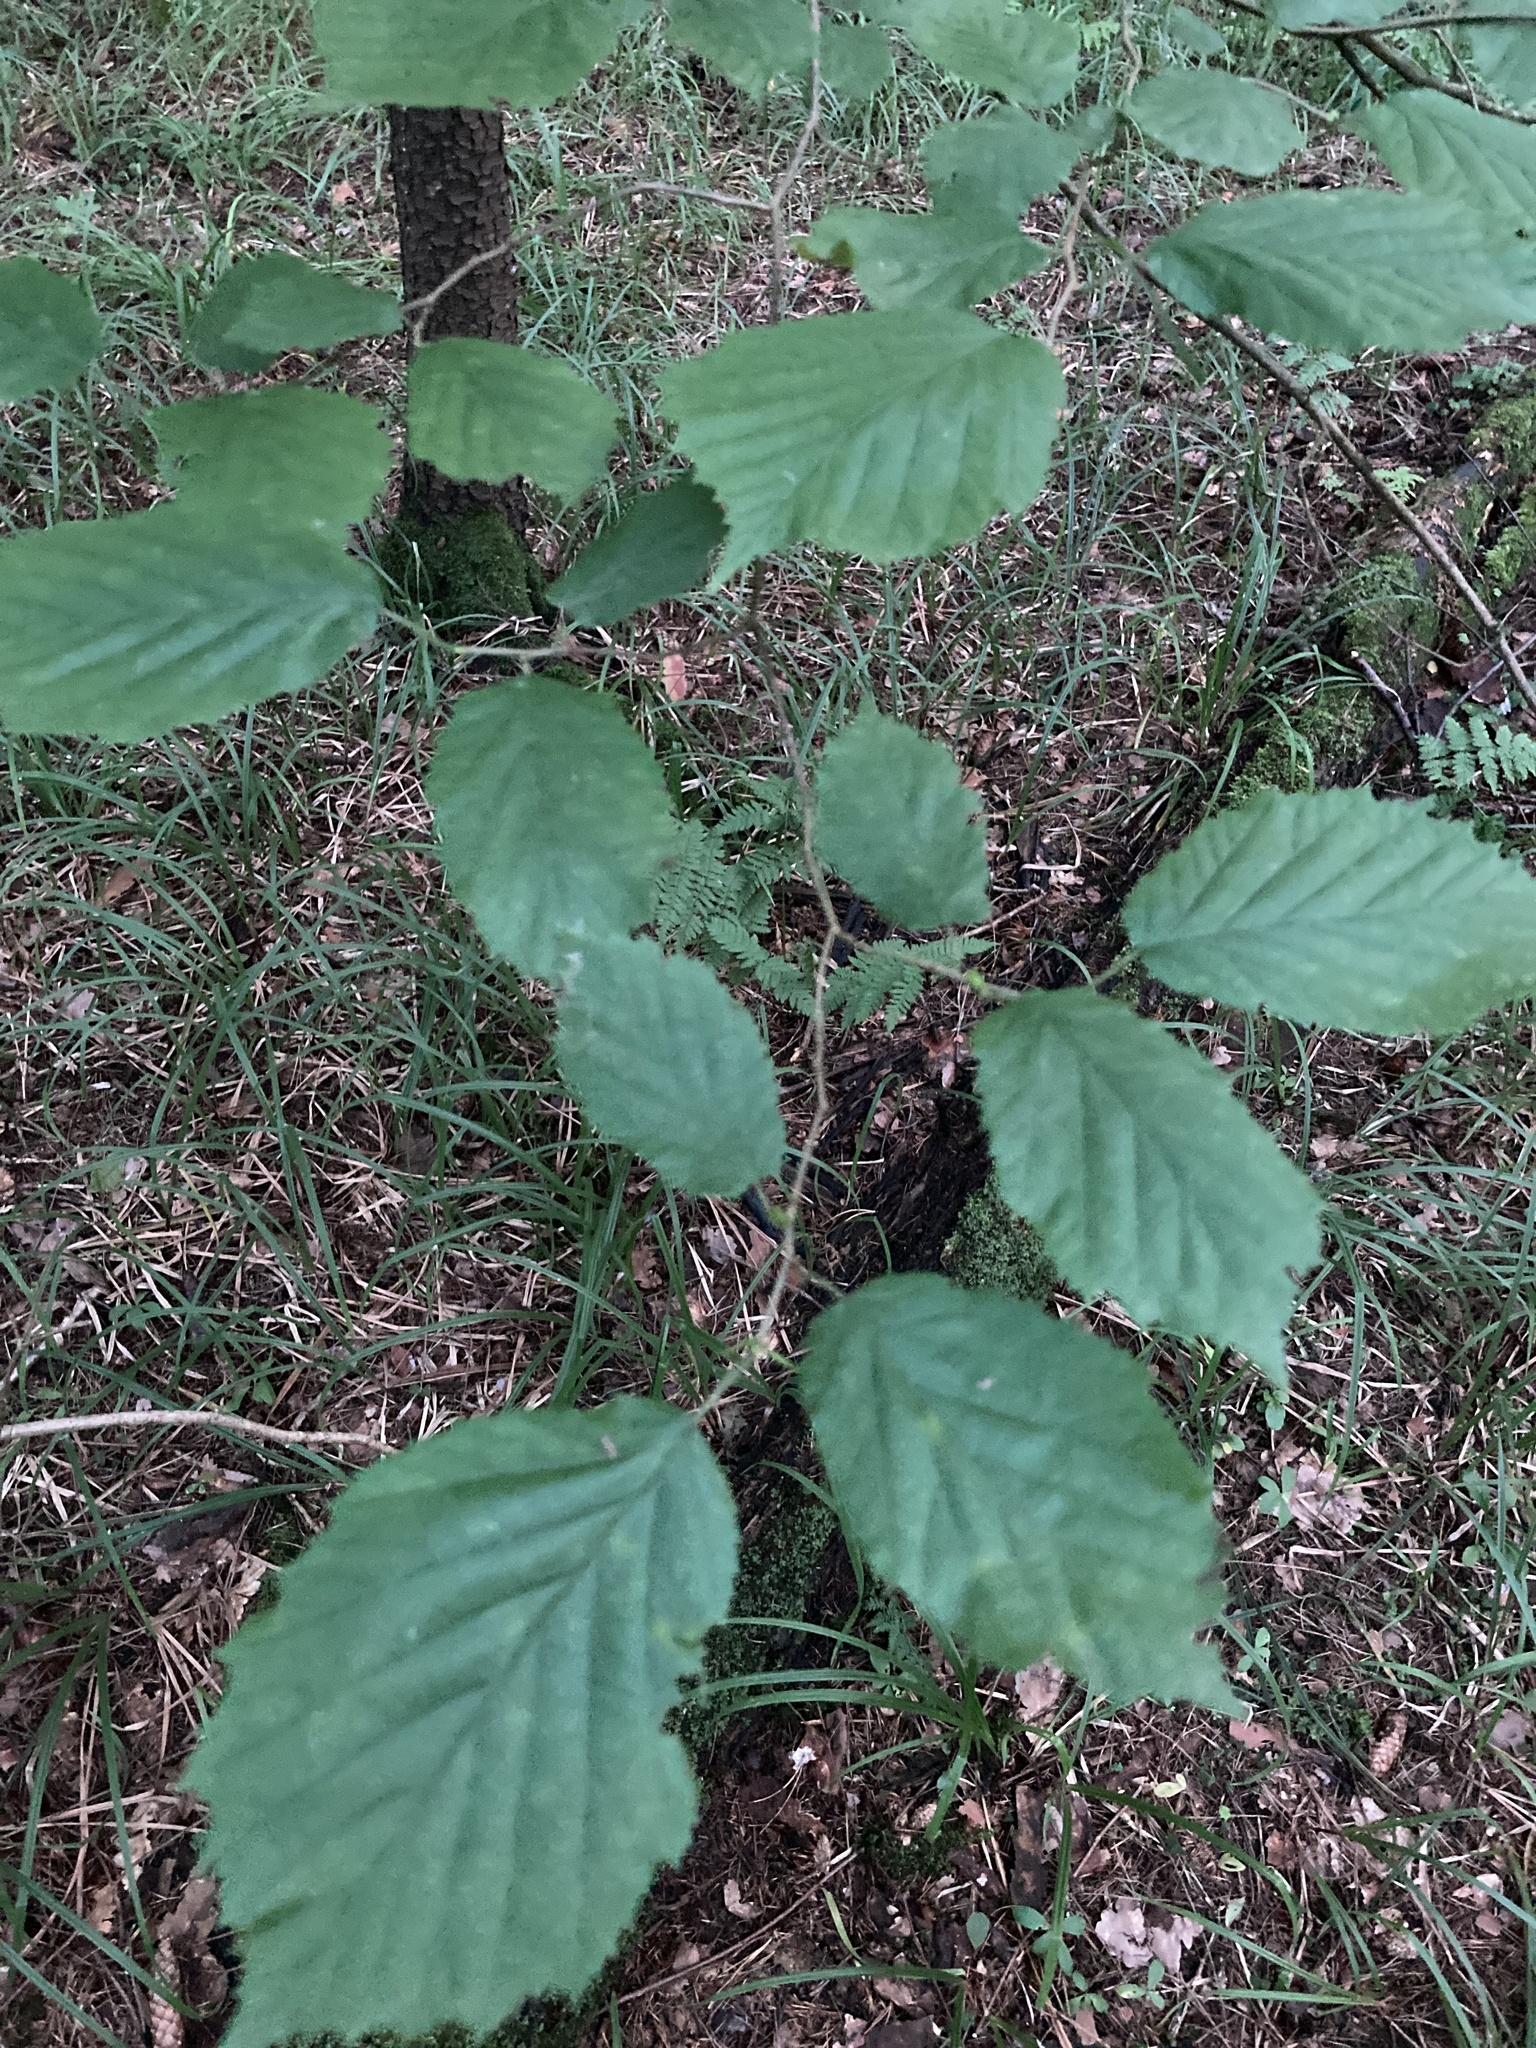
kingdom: Plantae
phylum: Tracheophyta
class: Magnoliopsida
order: Fagales
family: Betulaceae
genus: Corylus
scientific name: Corylus avellana
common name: European hazel
